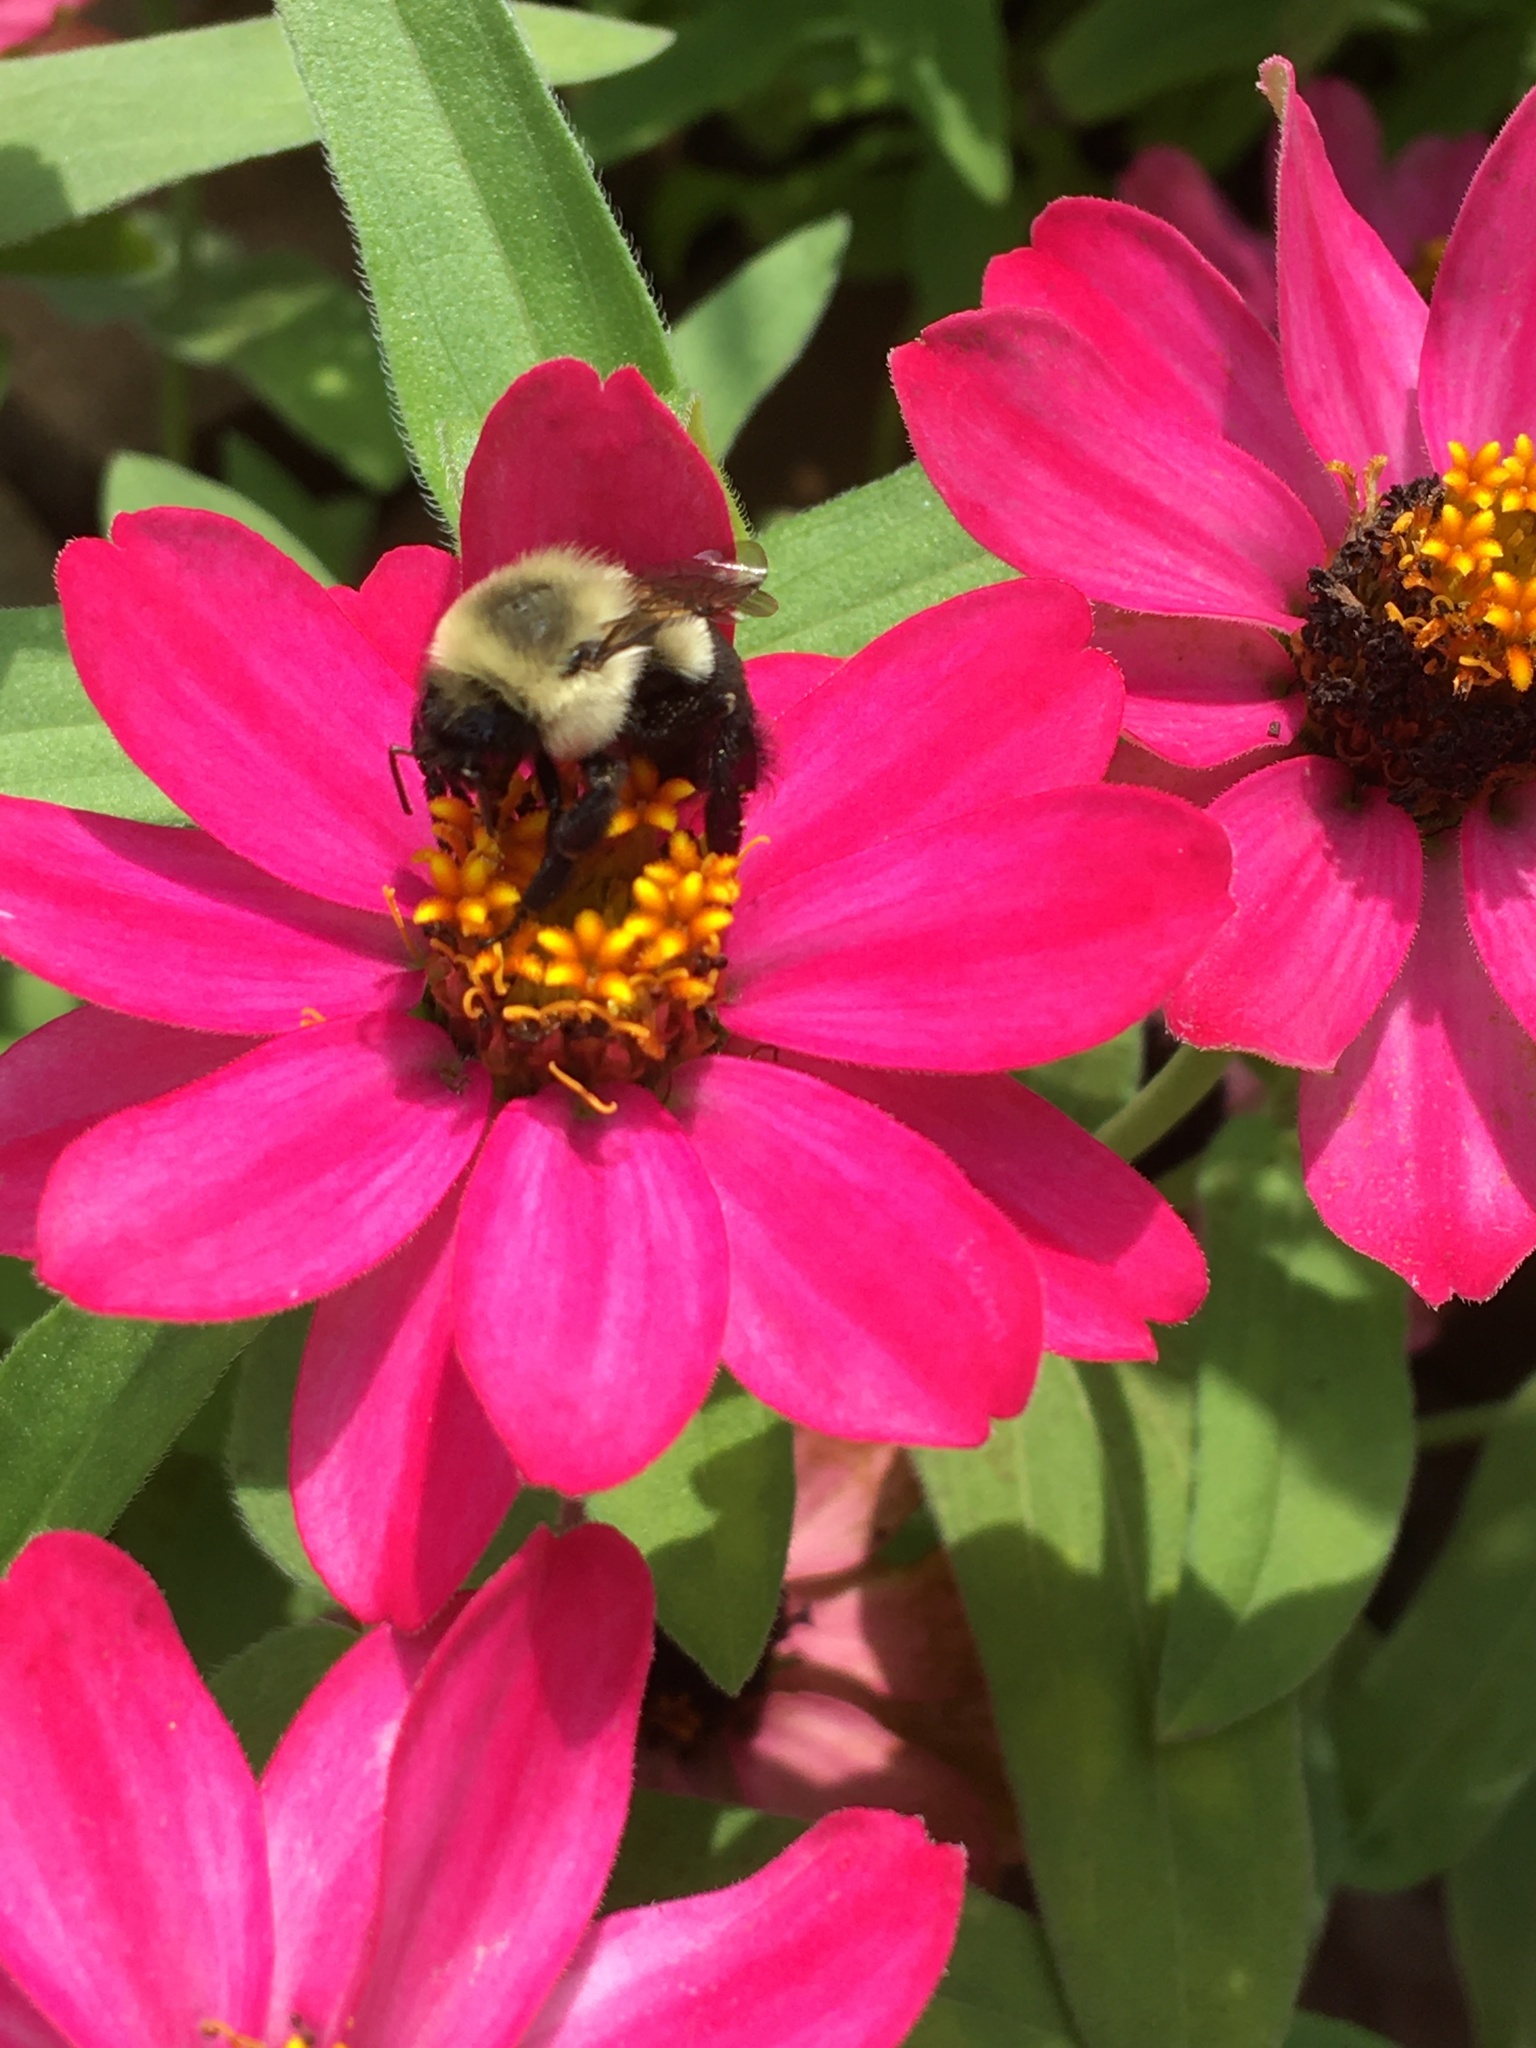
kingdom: Animalia
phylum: Arthropoda
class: Insecta
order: Hymenoptera
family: Apidae
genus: Bombus
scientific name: Bombus impatiens
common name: Common eastern bumble bee
